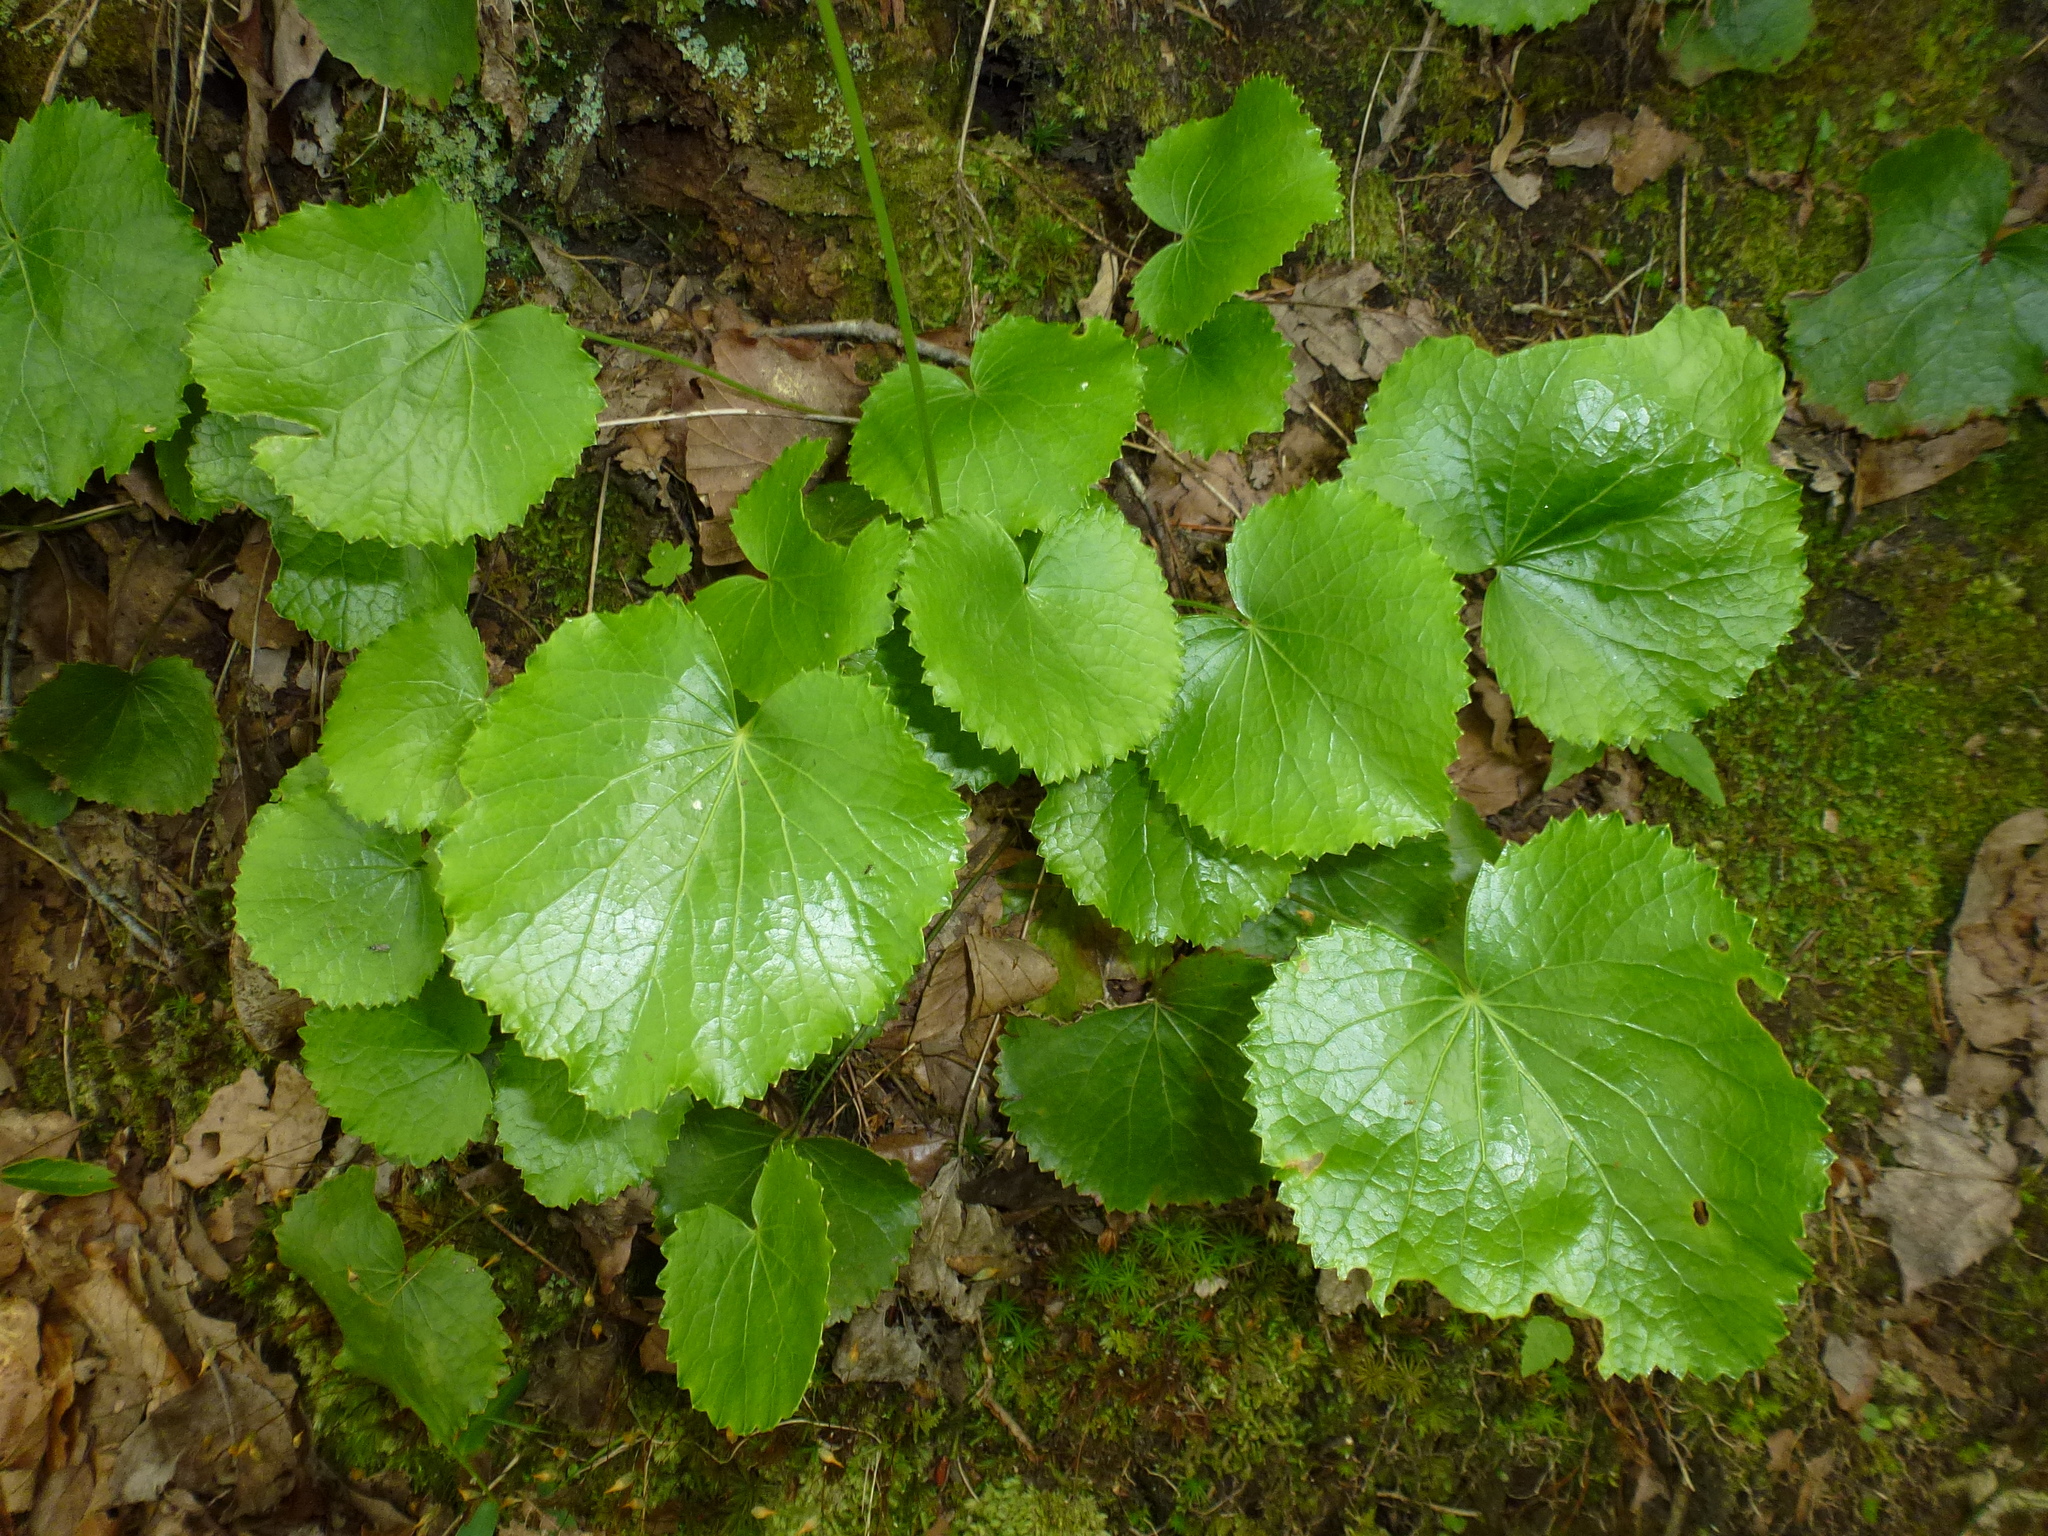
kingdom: Plantae
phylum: Tracheophyta
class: Magnoliopsida
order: Ericales
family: Diapensiaceae
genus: Galax
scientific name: Galax urceolata
